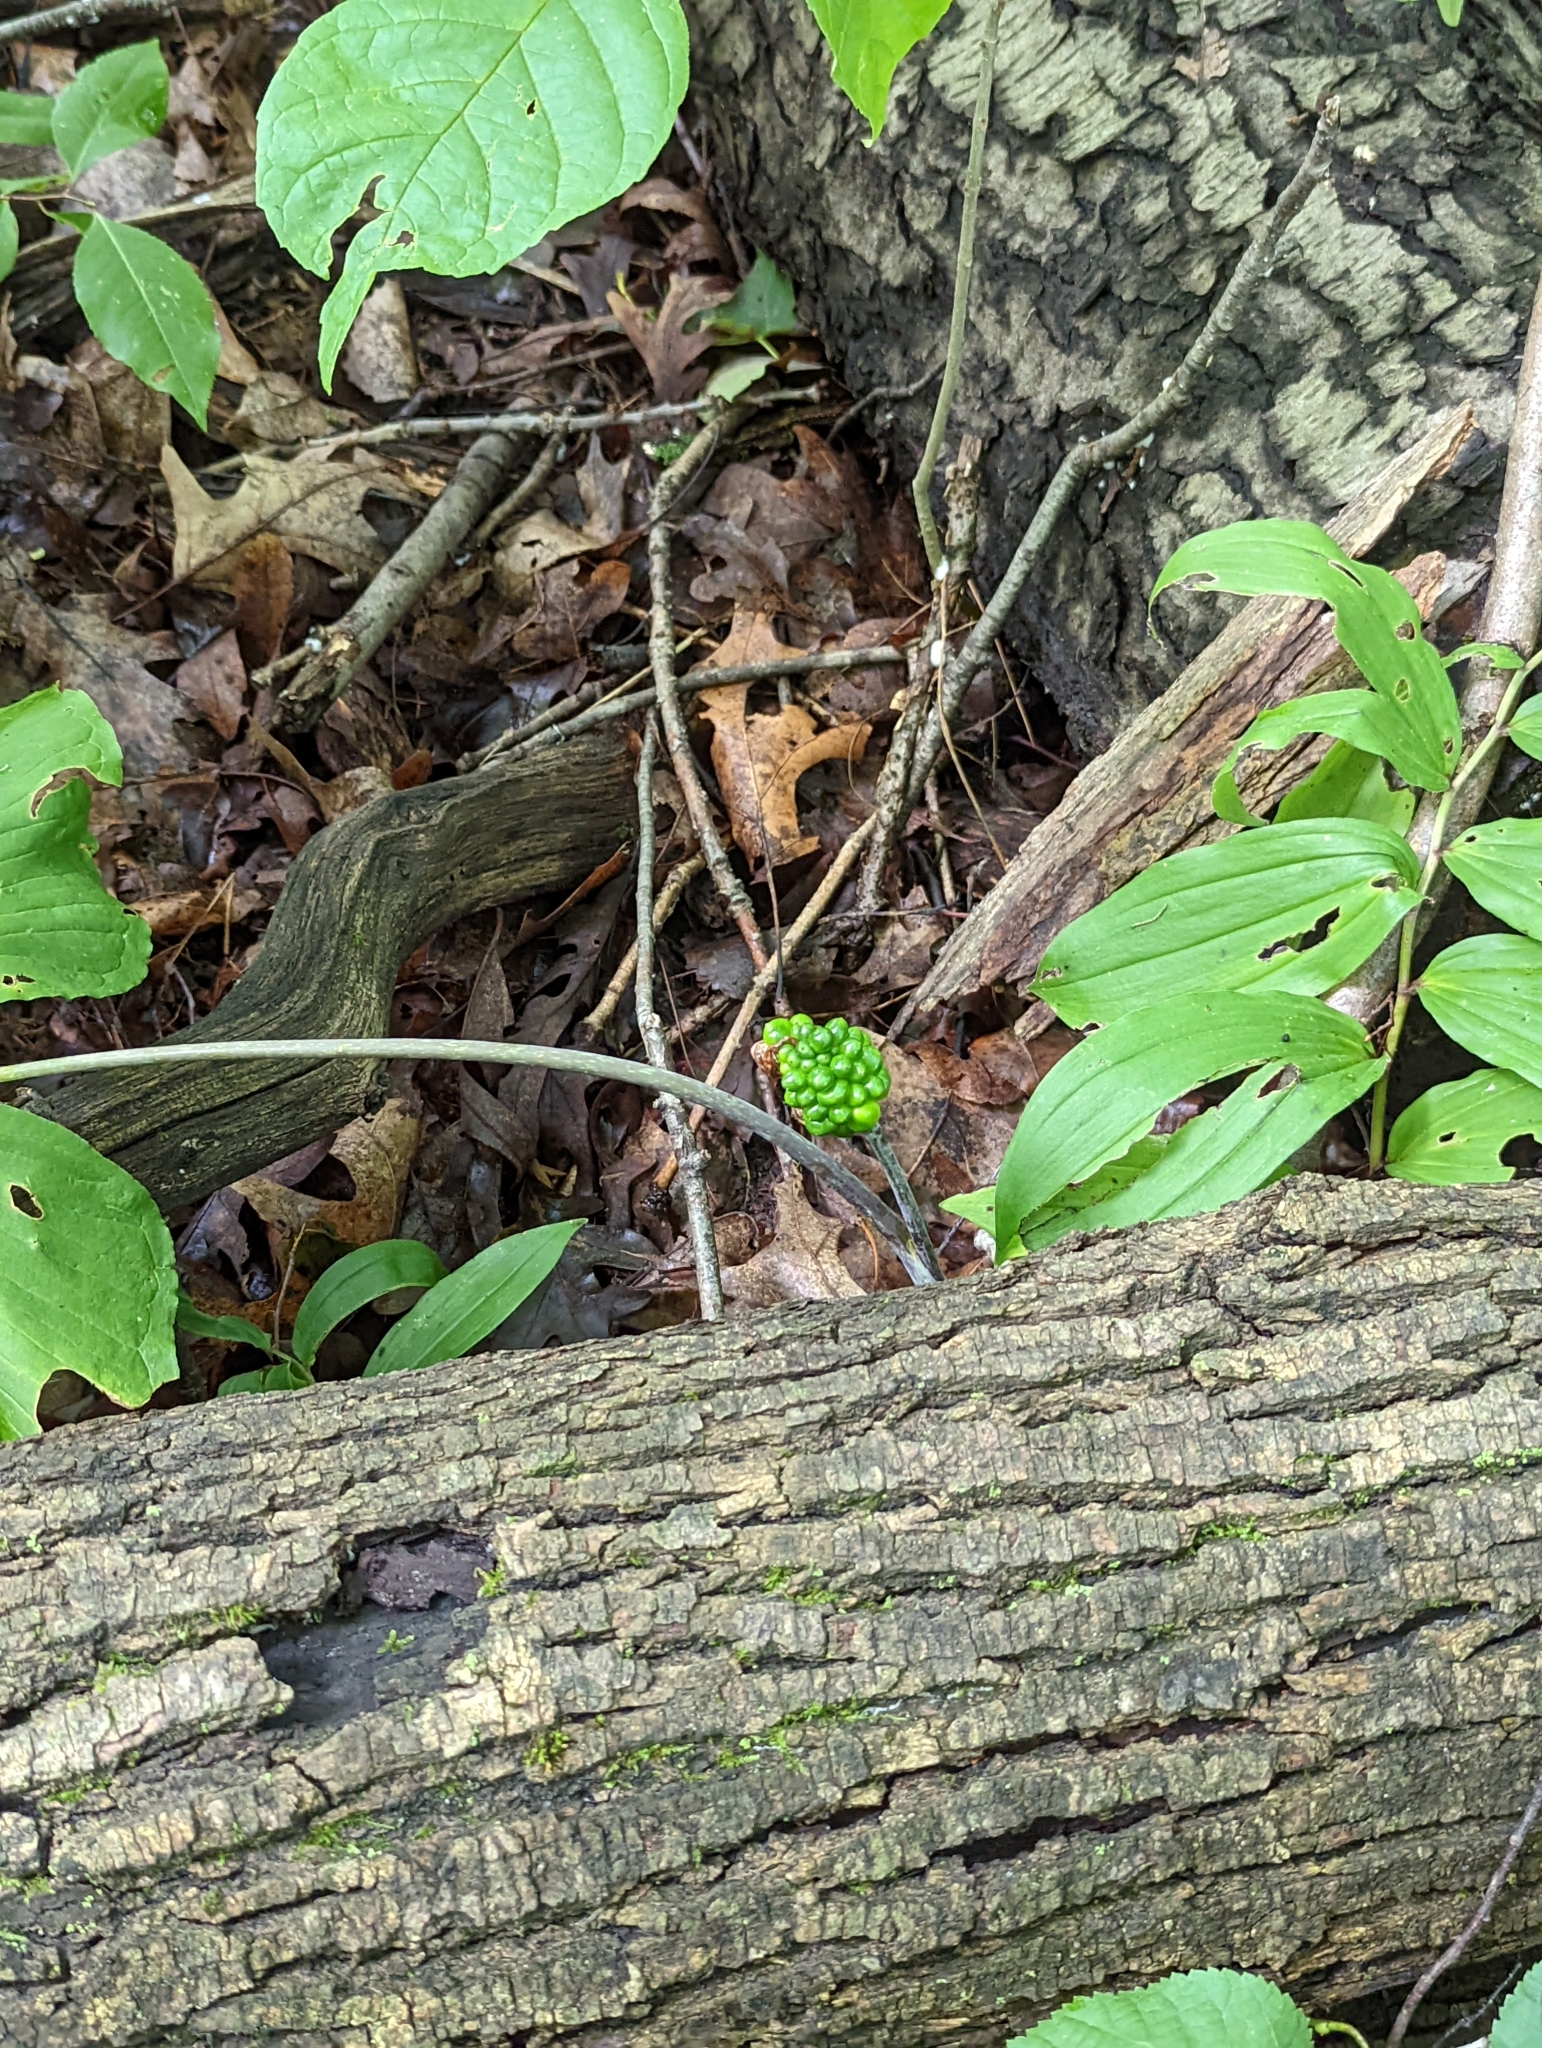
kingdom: Plantae
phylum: Tracheophyta
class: Liliopsida
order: Alismatales
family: Araceae
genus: Arisaema
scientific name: Arisaema triphyllum
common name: Jack-in-the-pulpit
